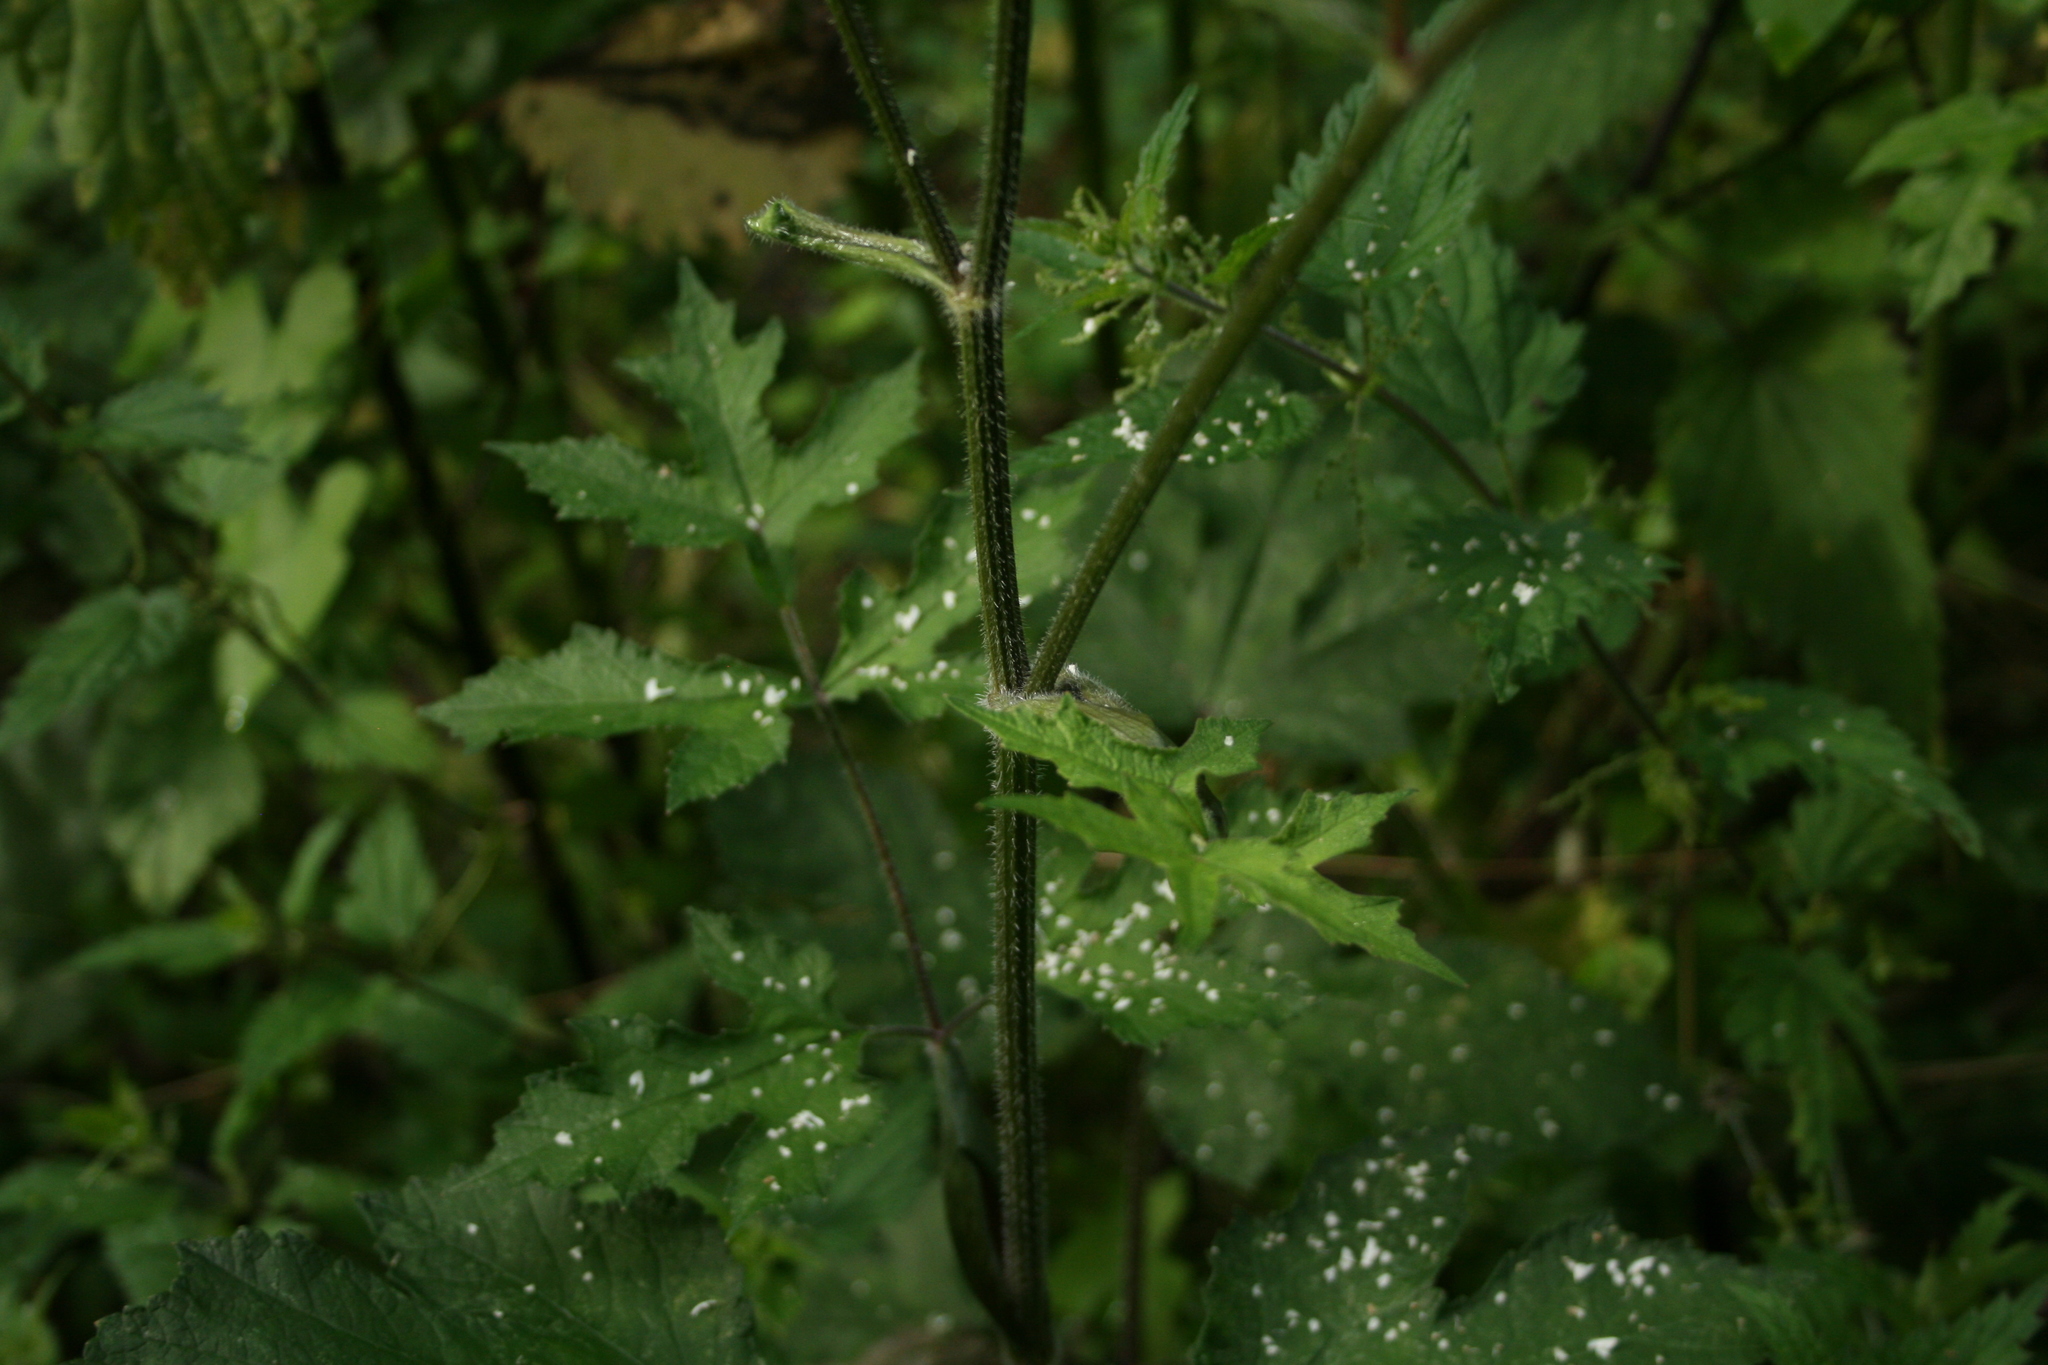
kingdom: Plantae
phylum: Tracheophyta
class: Magnoliopsida
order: Apiales
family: Apiaceae
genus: Heracleum
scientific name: Heracleum sphondylium
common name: Hogweed
